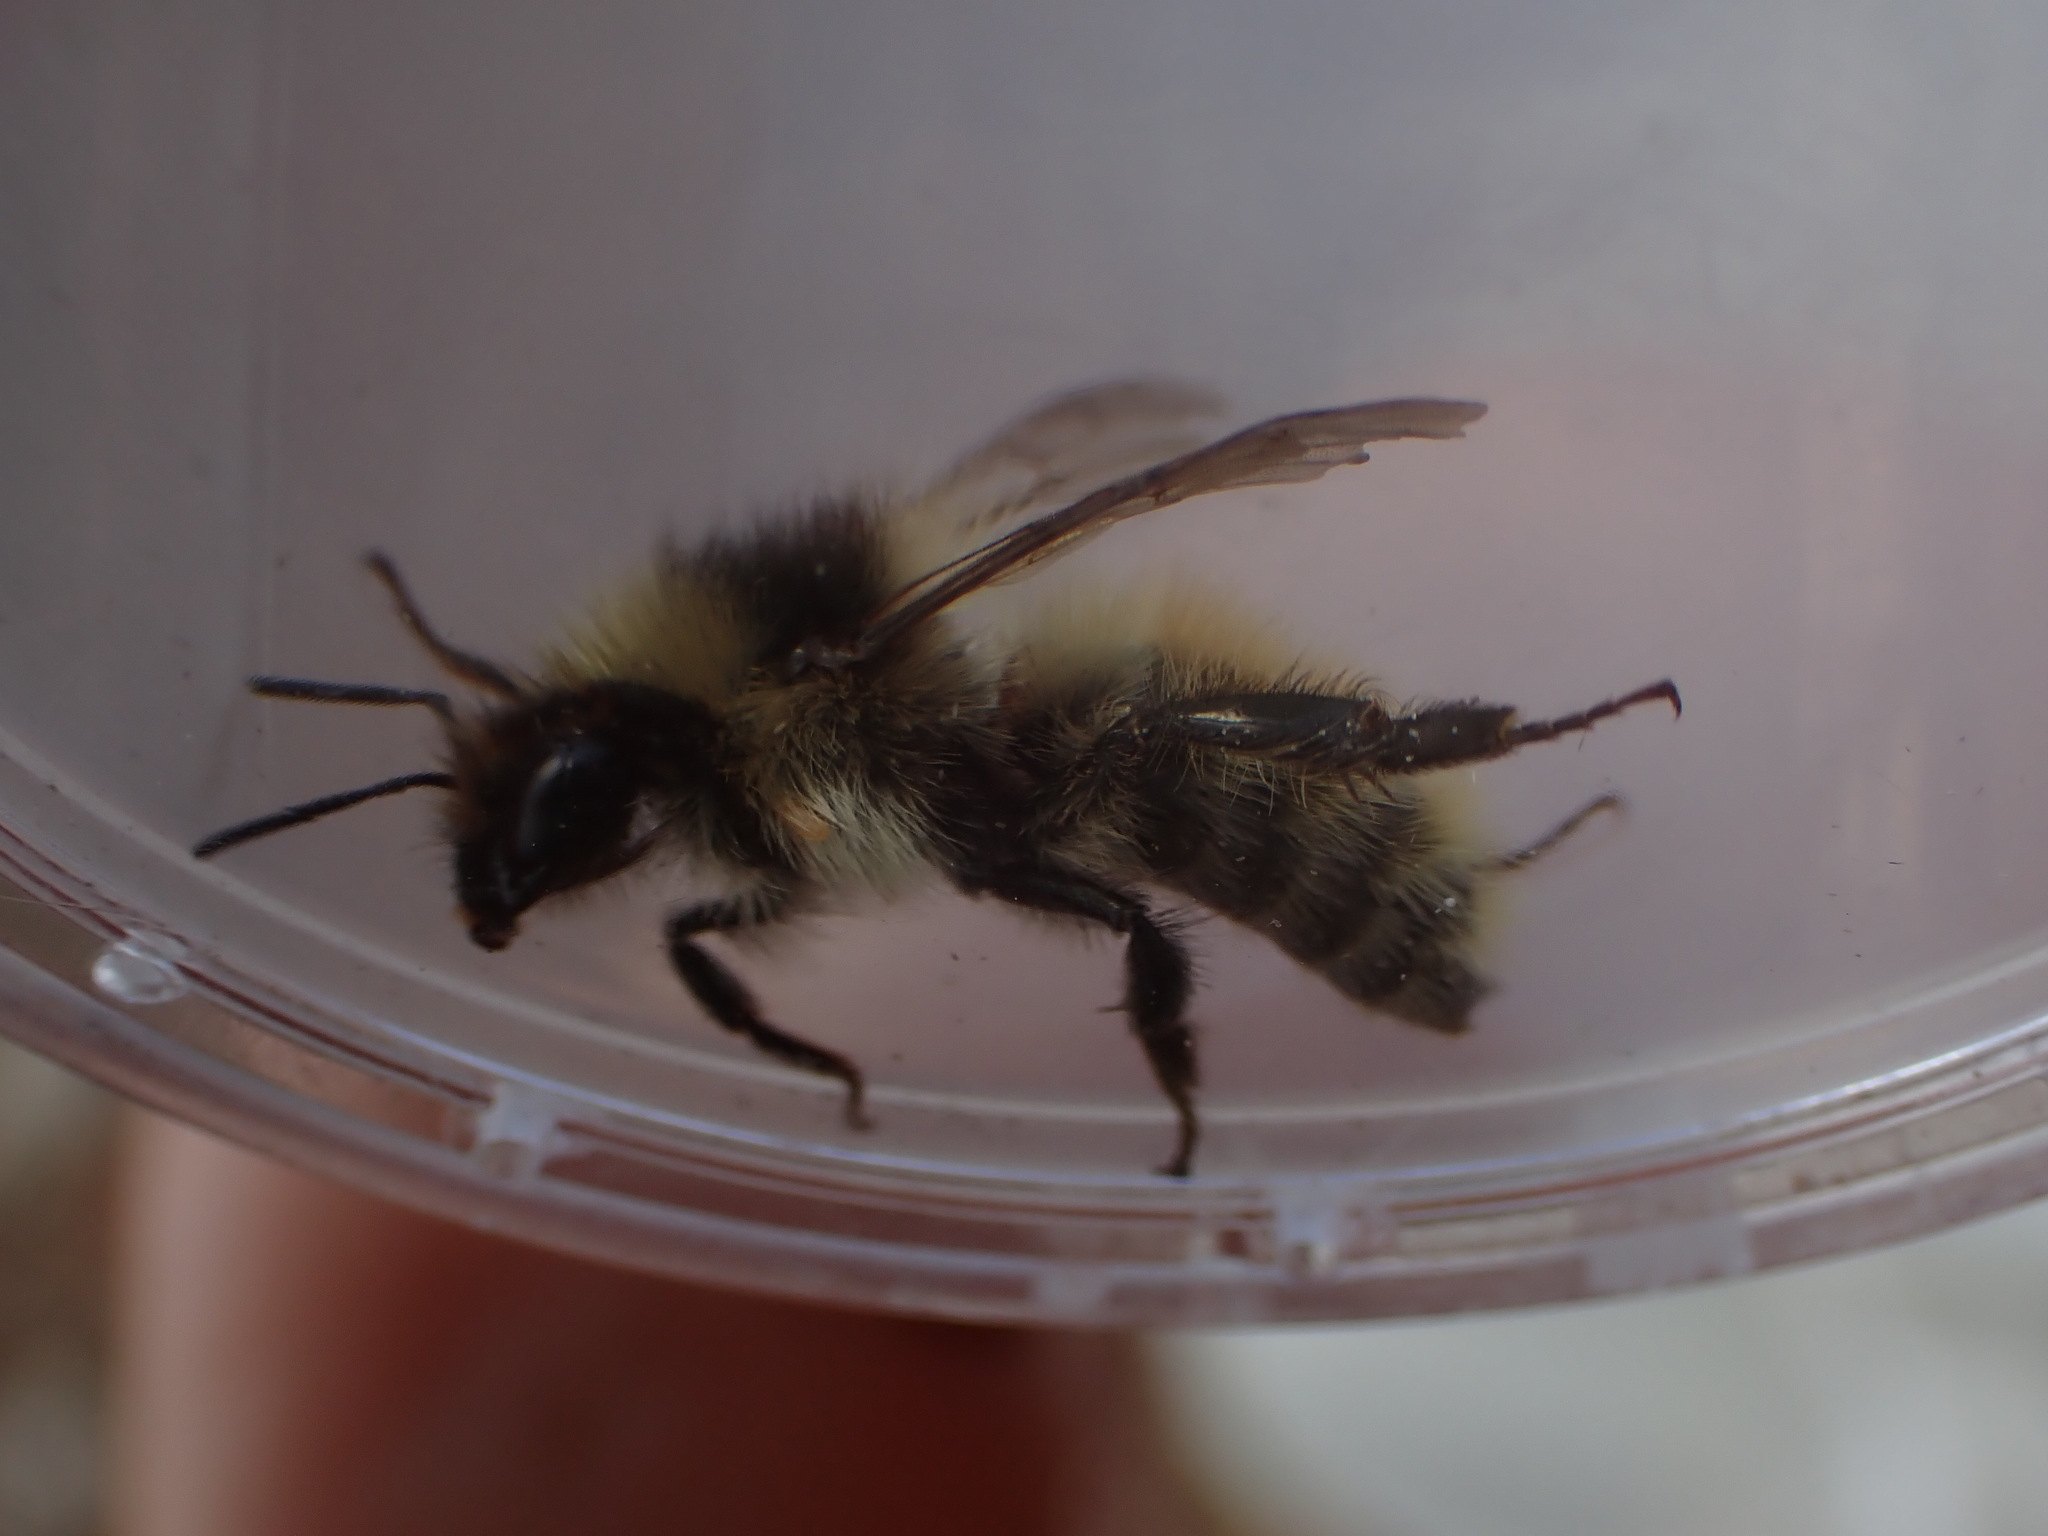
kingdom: Animalia
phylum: Arthropoda
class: Insecta
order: Hymenoptera
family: Apidae
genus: Bombus
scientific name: Bombus veteranus
